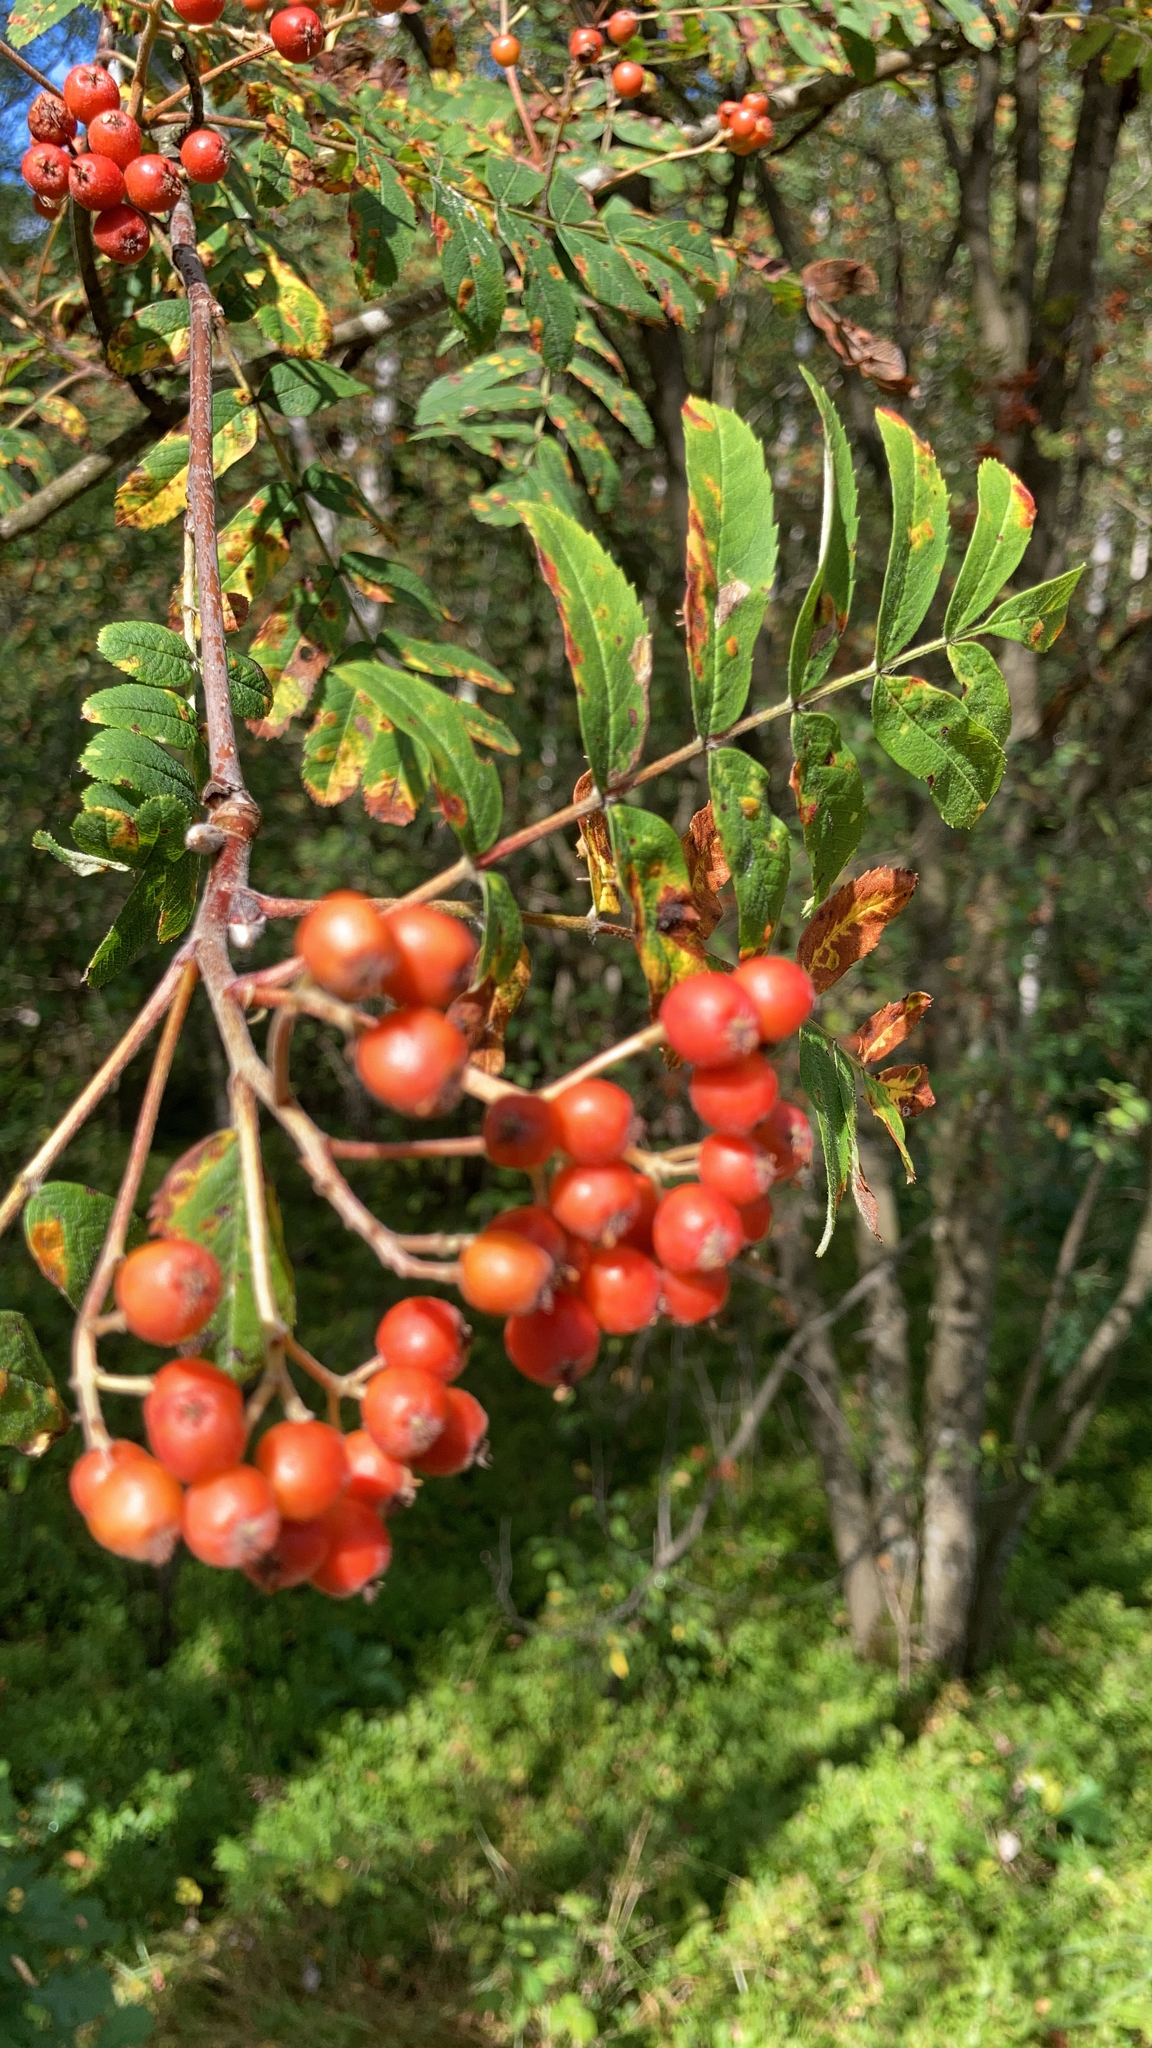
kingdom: Plantae
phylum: Tracheophyta
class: Magnoliopsida
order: Rosales
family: Rosaceae
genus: Sorbus
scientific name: Sorbus aucuparia
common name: Rowan
